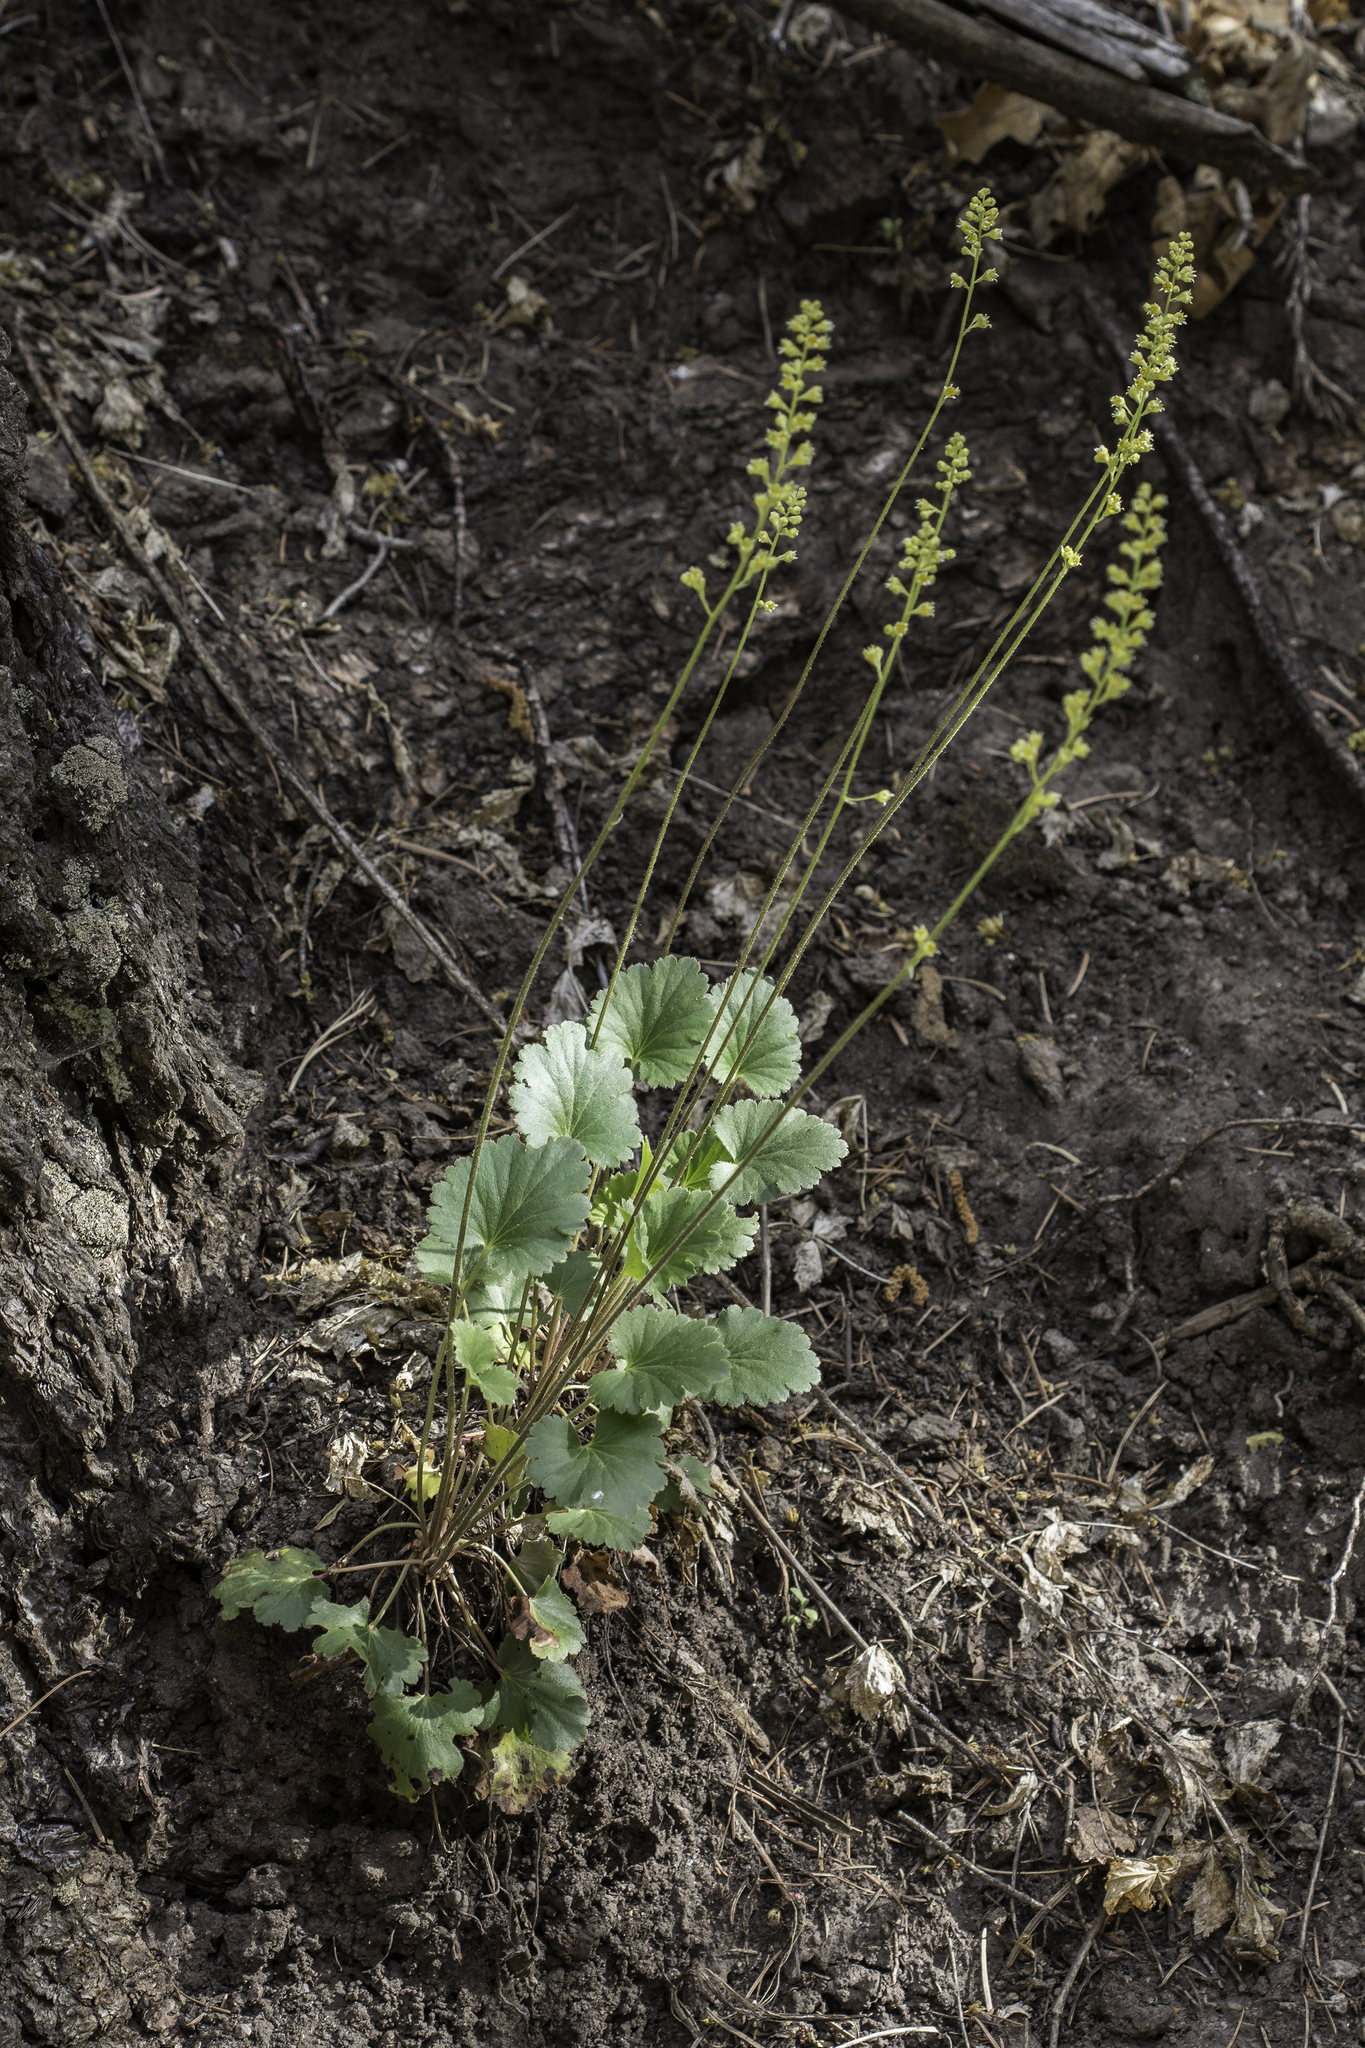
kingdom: Plantae
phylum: Tracheophyta
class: Magnoliopsida
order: Saxifragales
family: Saxifragaceae
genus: Heuchera
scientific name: Heuchera parvifolia
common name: Common alumroot
